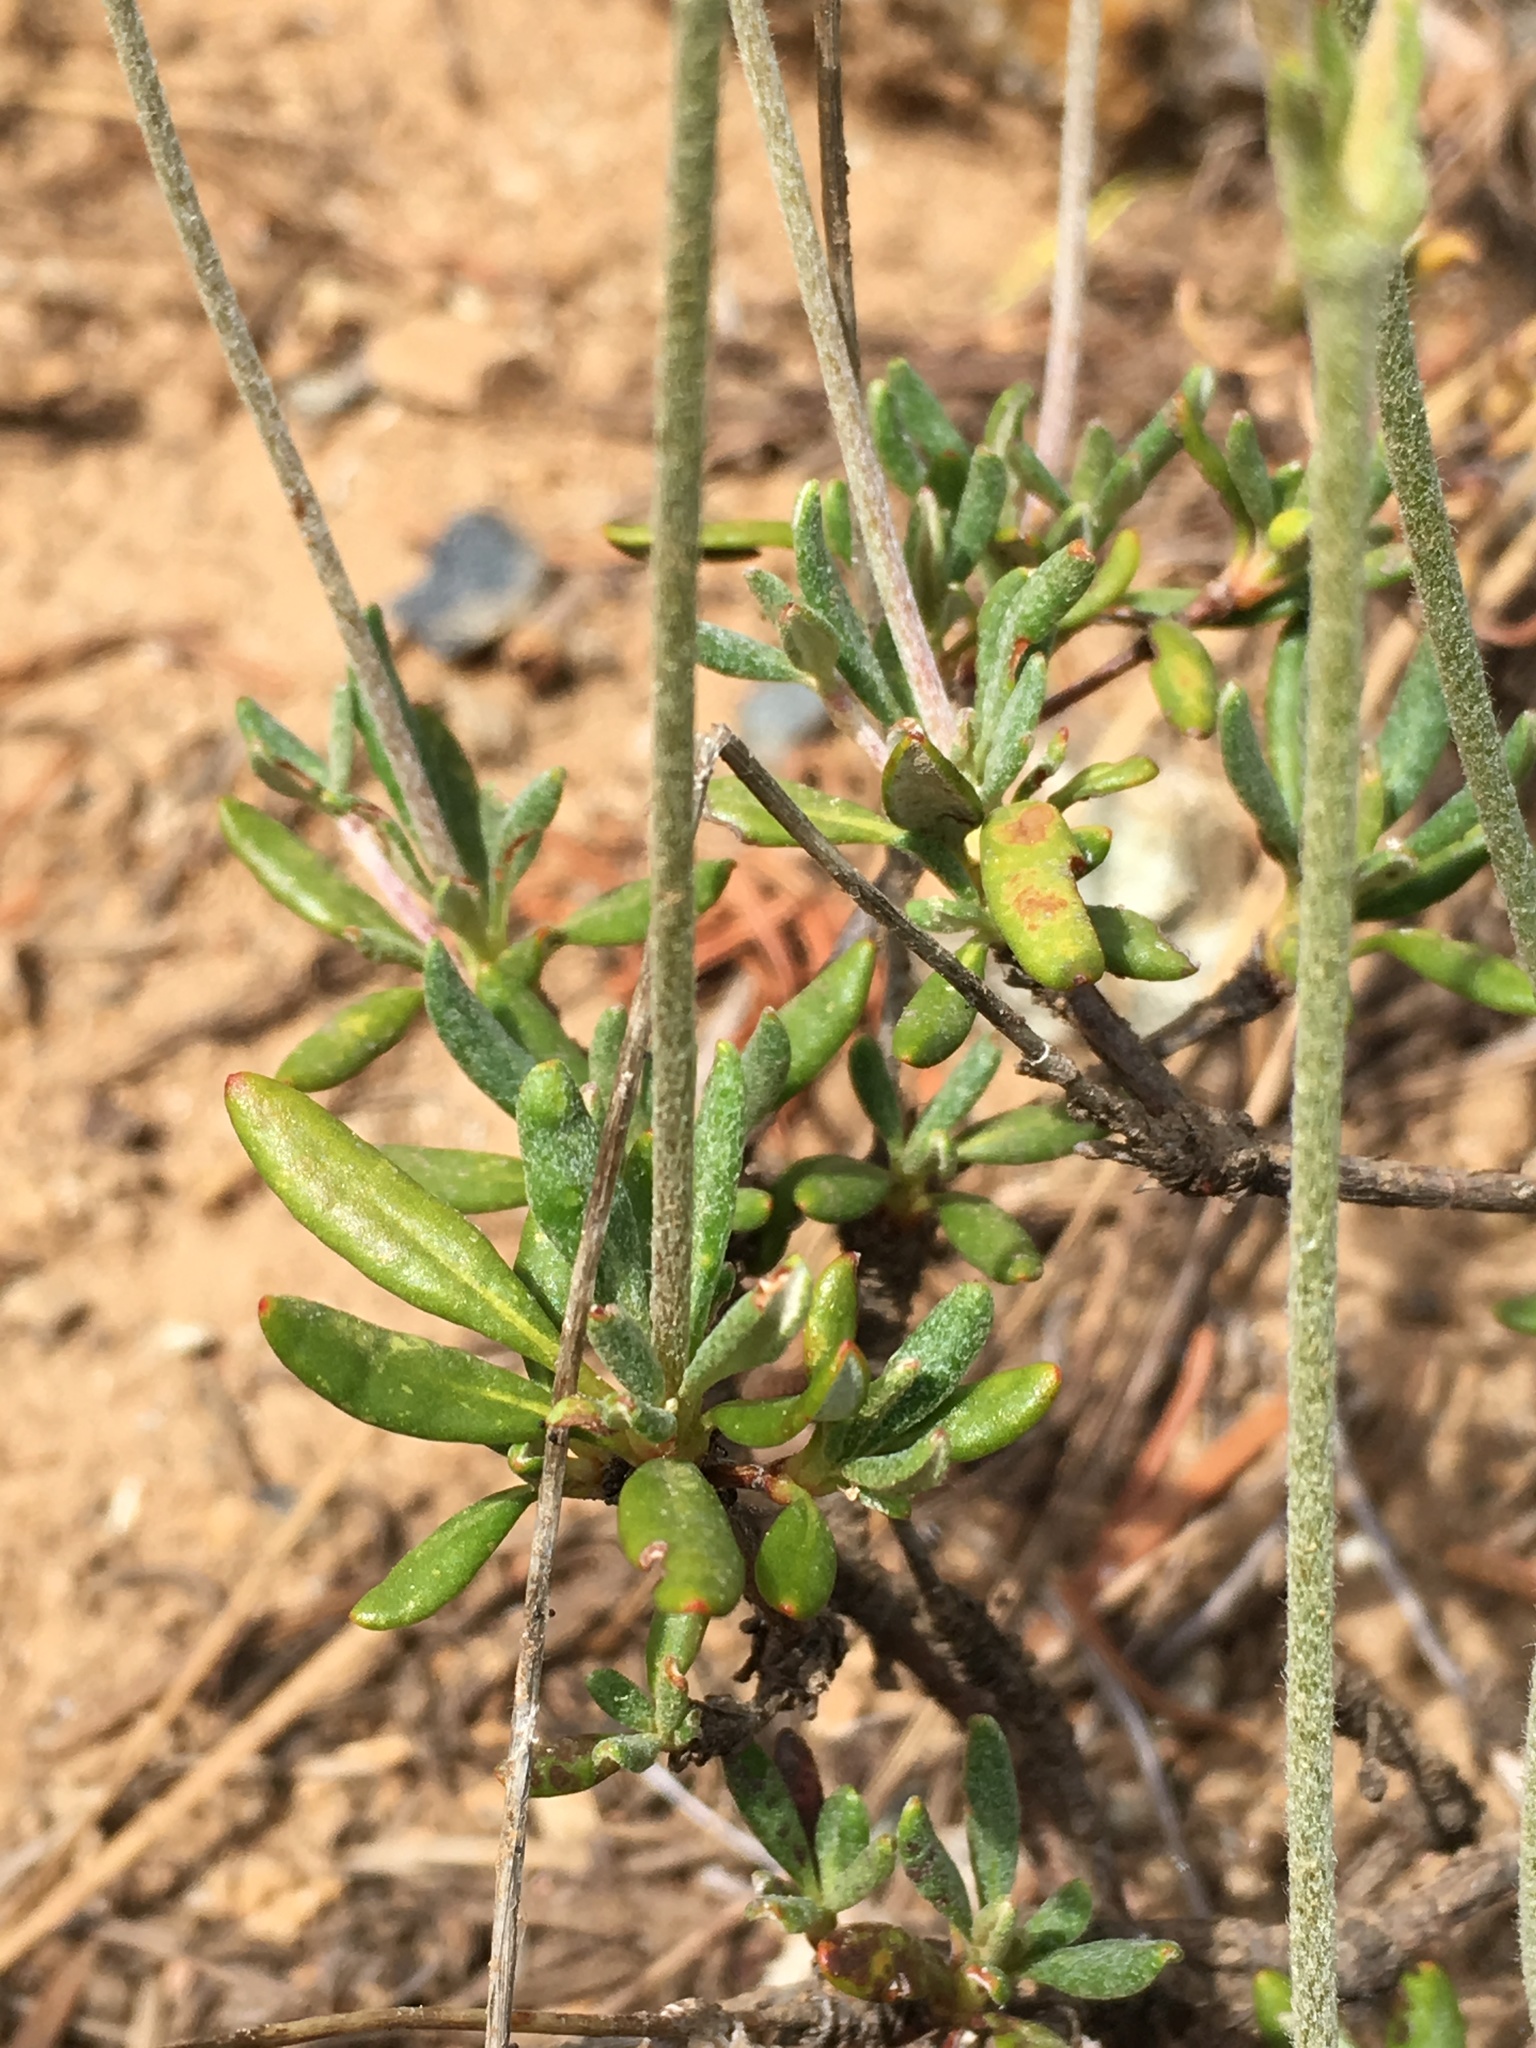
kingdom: Plantae
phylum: Tracheophyta
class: Magnoliopsida
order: Caryophyllales
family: Polygonaceae
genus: Eriogonum
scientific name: Eriogonum congdonii
